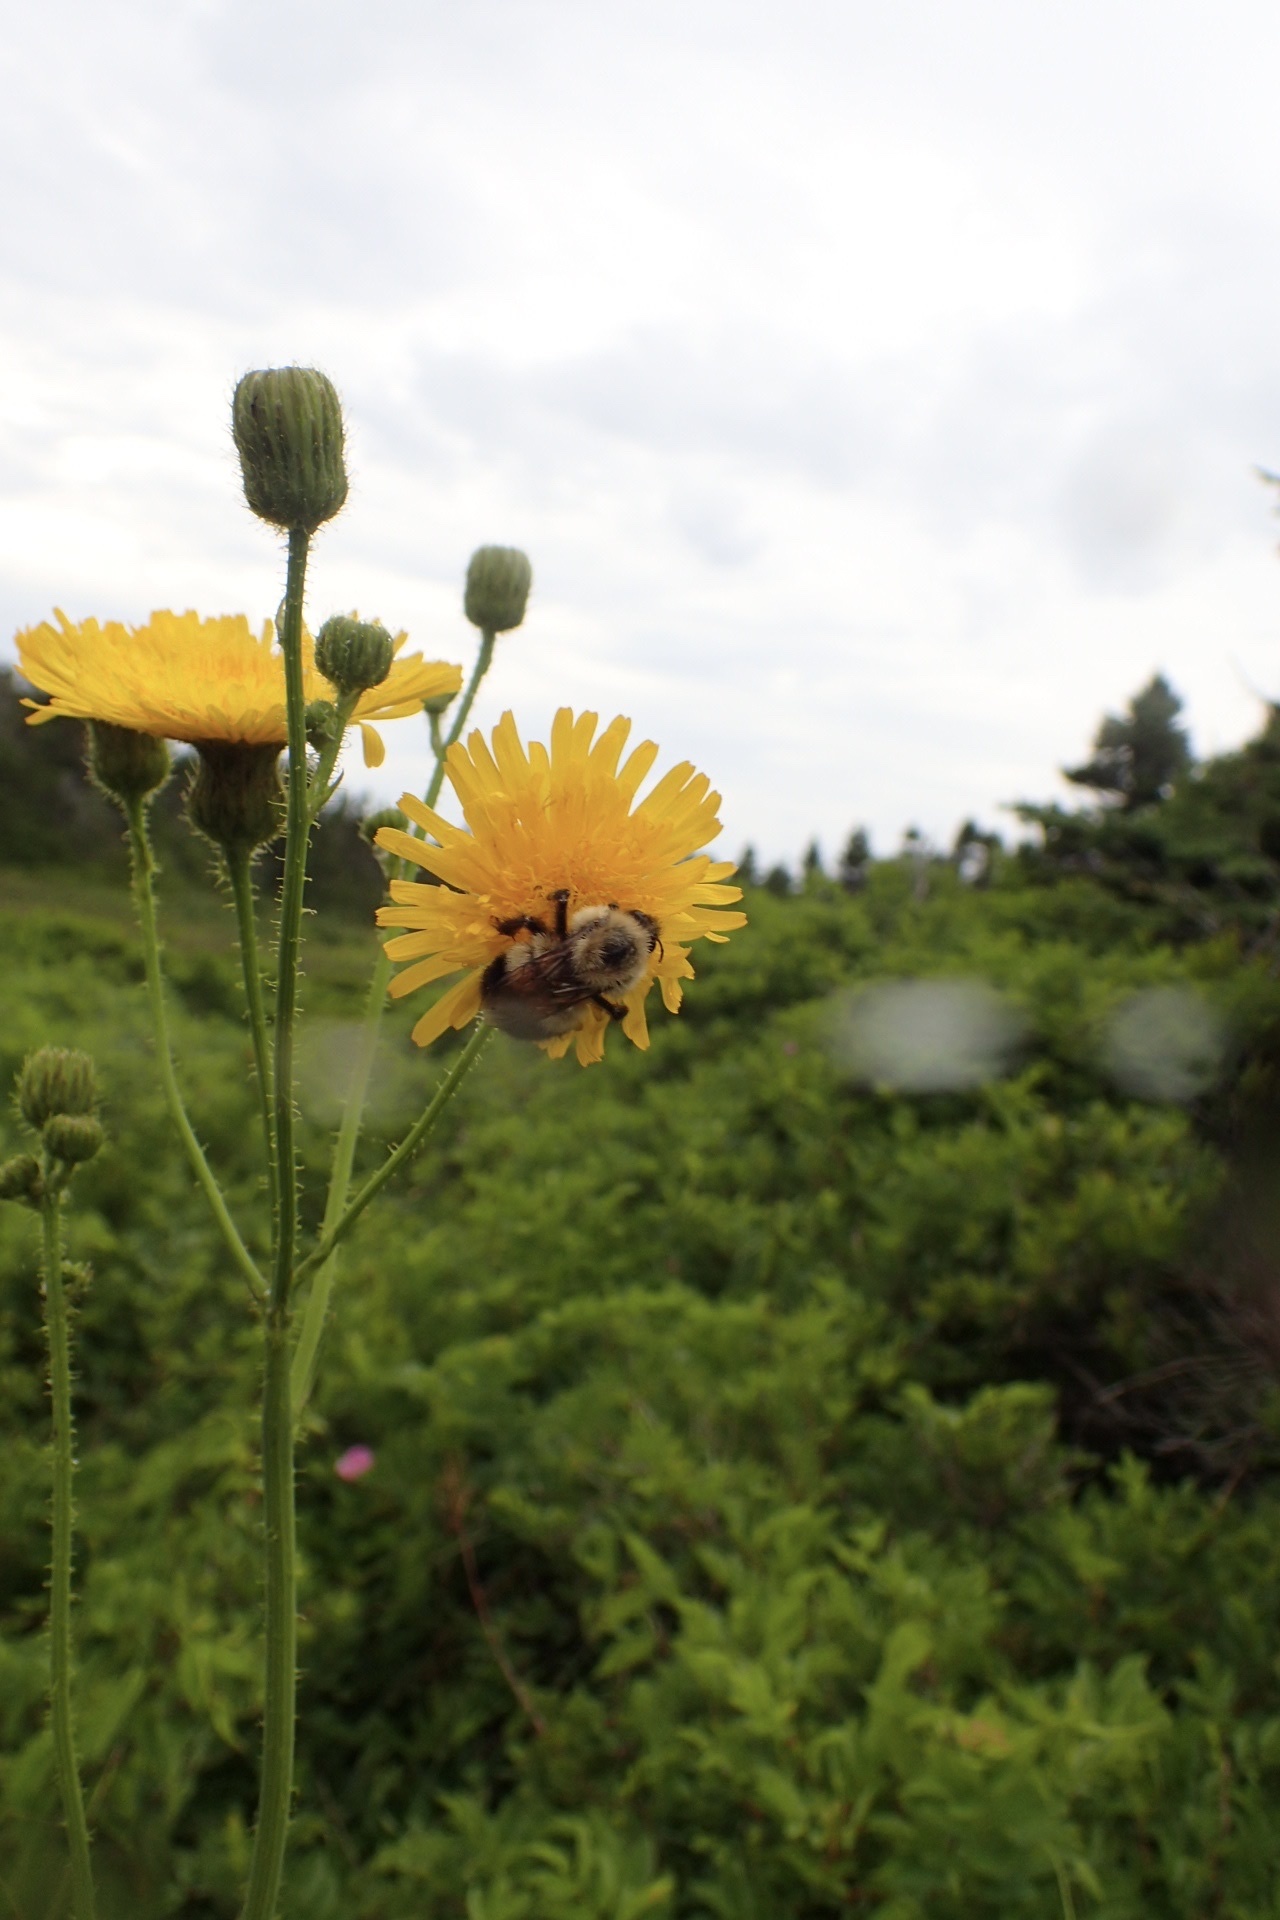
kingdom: Animalia
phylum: Arthropoda
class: Insecta
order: Hymenoptera
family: Apidae
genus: Pyrobombus
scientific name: Pyrobombus
